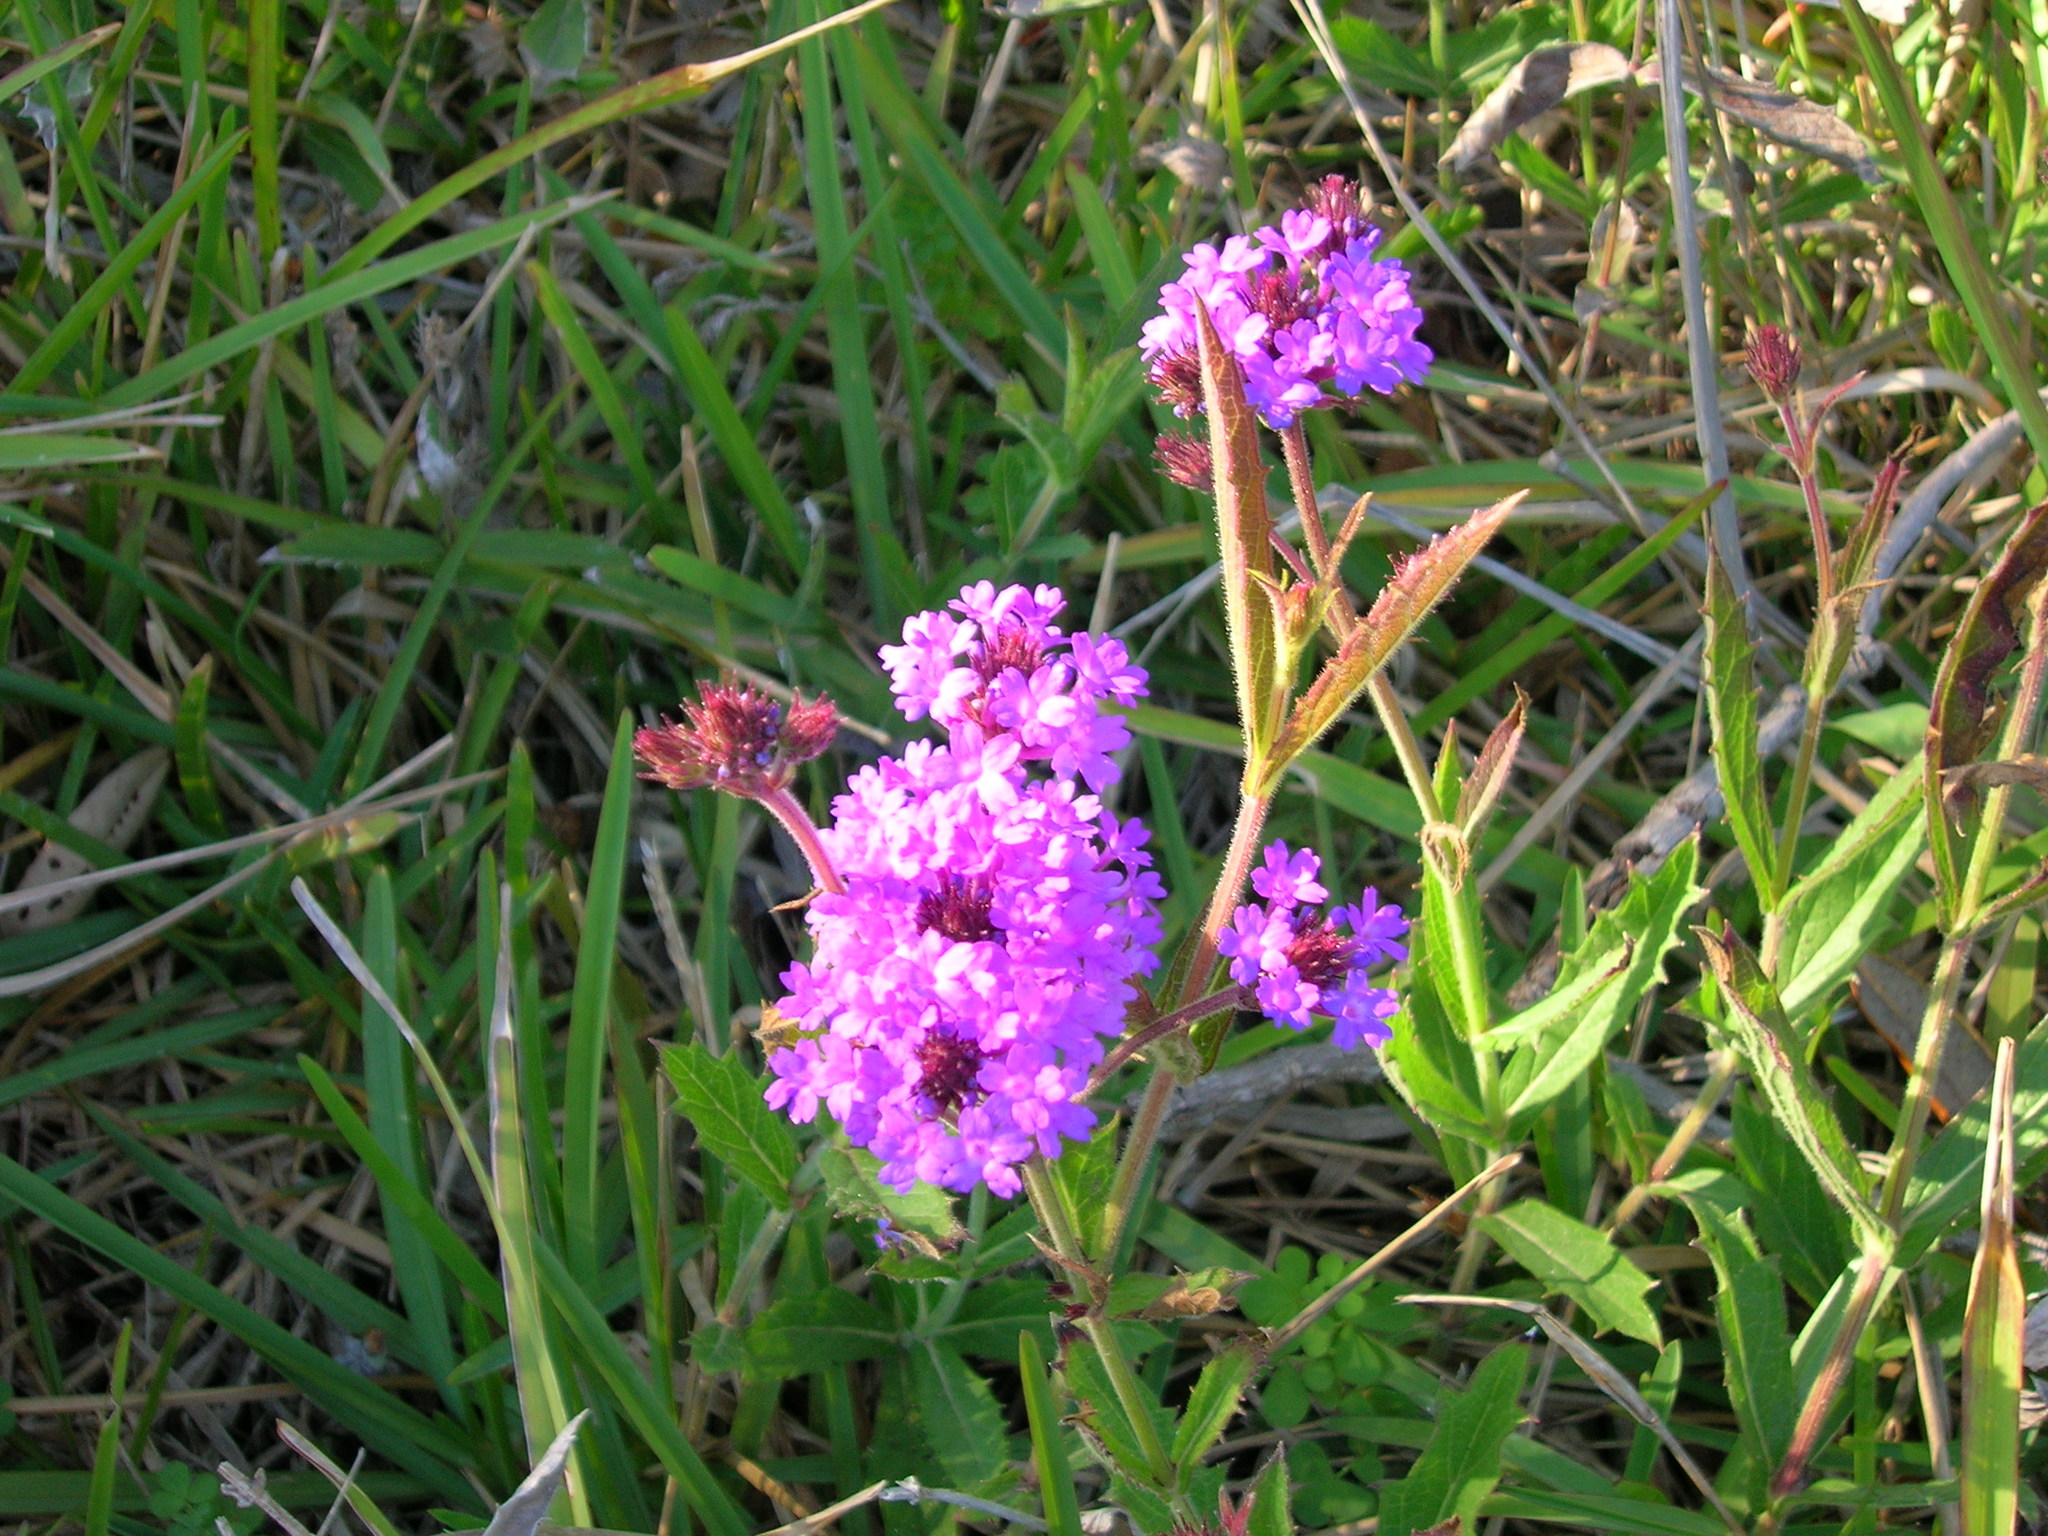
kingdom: Plantae
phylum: Tracheophyta
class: Magnoliopsida
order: Lamiales
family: Verbenaceae
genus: Verbena
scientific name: Verbena rigida
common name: Slender vervain
